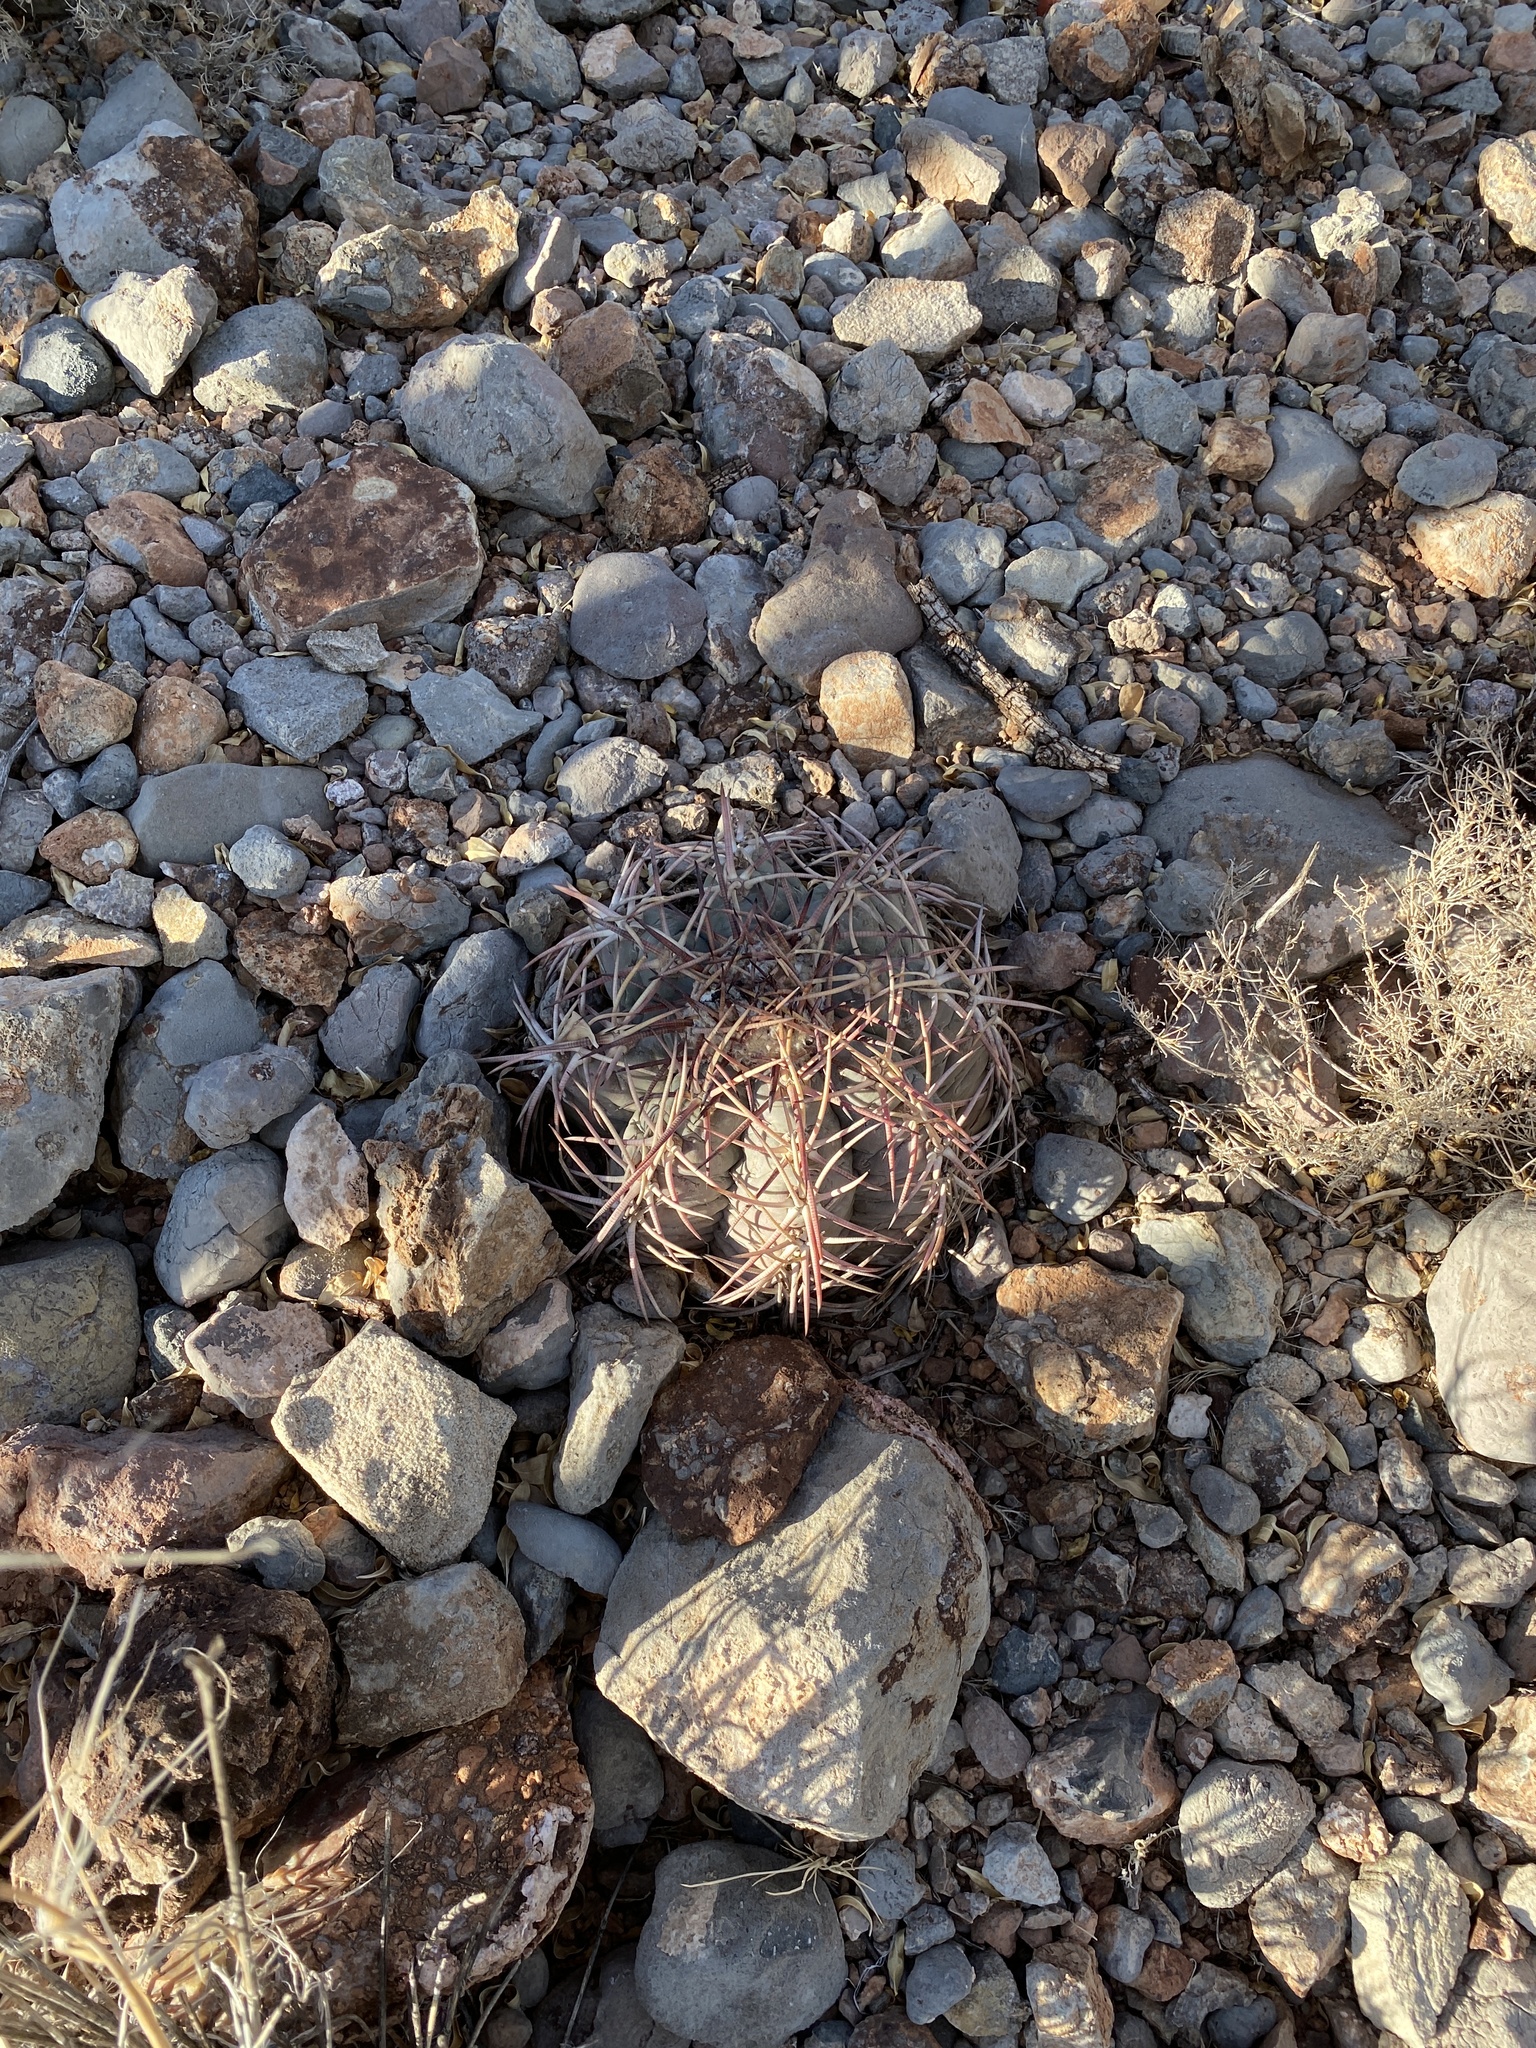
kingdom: Plantae
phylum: Tracheophyta
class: Magnoliopsida
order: Caryophyllales
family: Cactaceae
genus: Echinocactus
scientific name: Echinocactus horizonthalonius
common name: Devilshead
